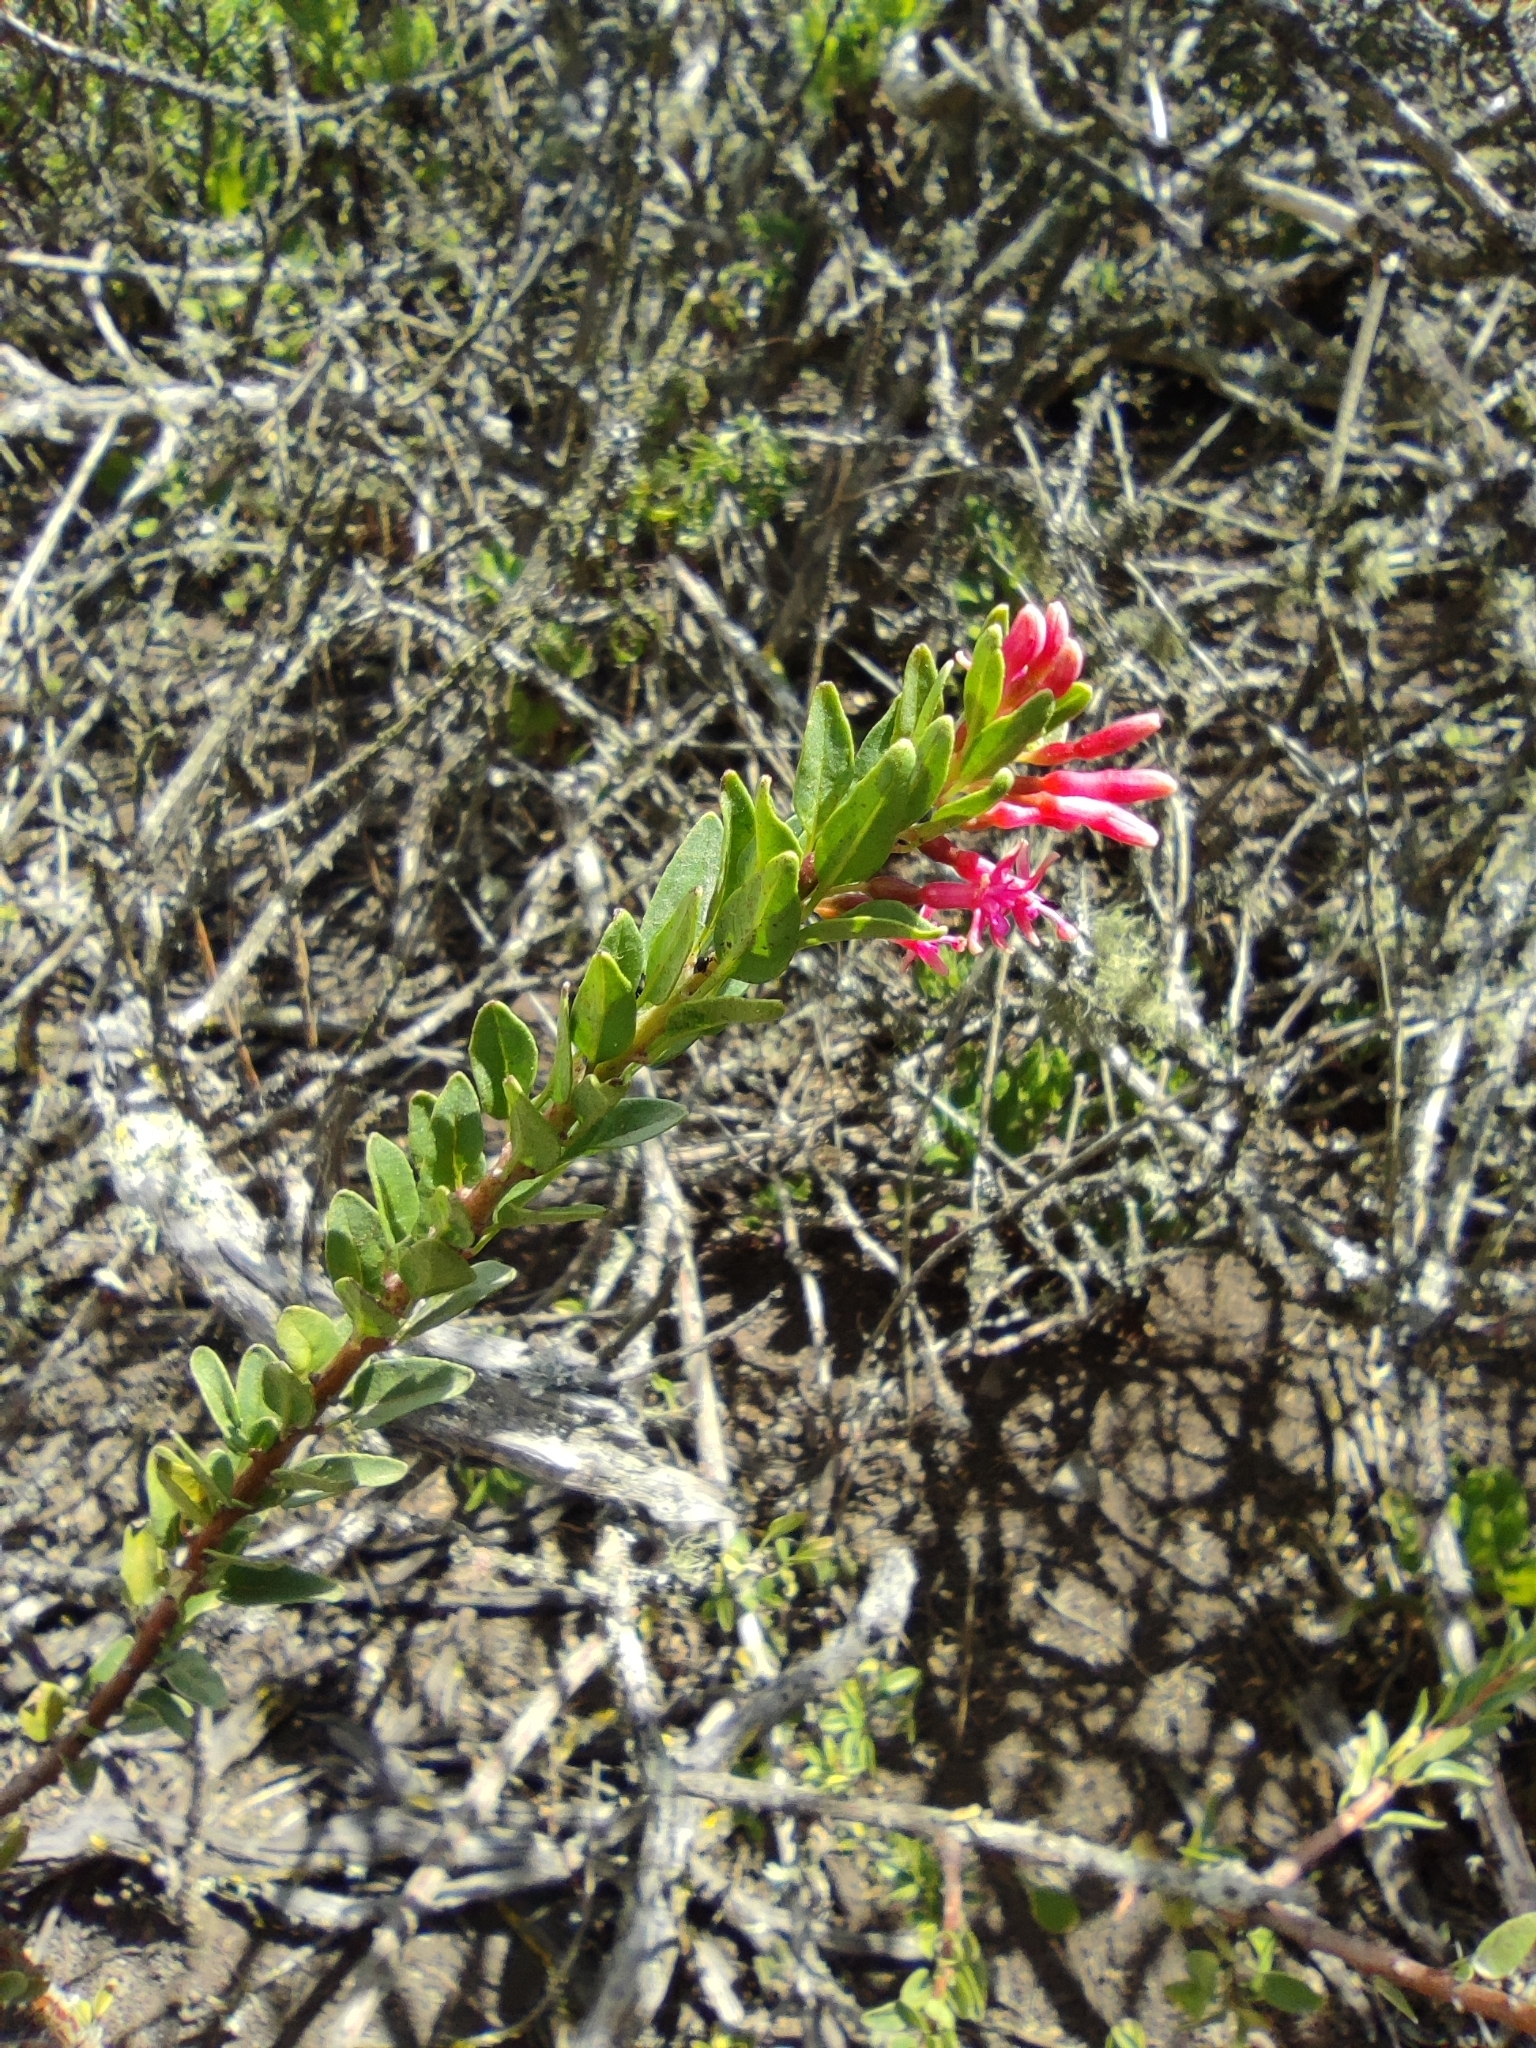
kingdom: Plantae
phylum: Tracheophyta
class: Magnoliopsida
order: Myrtales
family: Onagraceae
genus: Fuchsia
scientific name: Fuchsia lycioides
